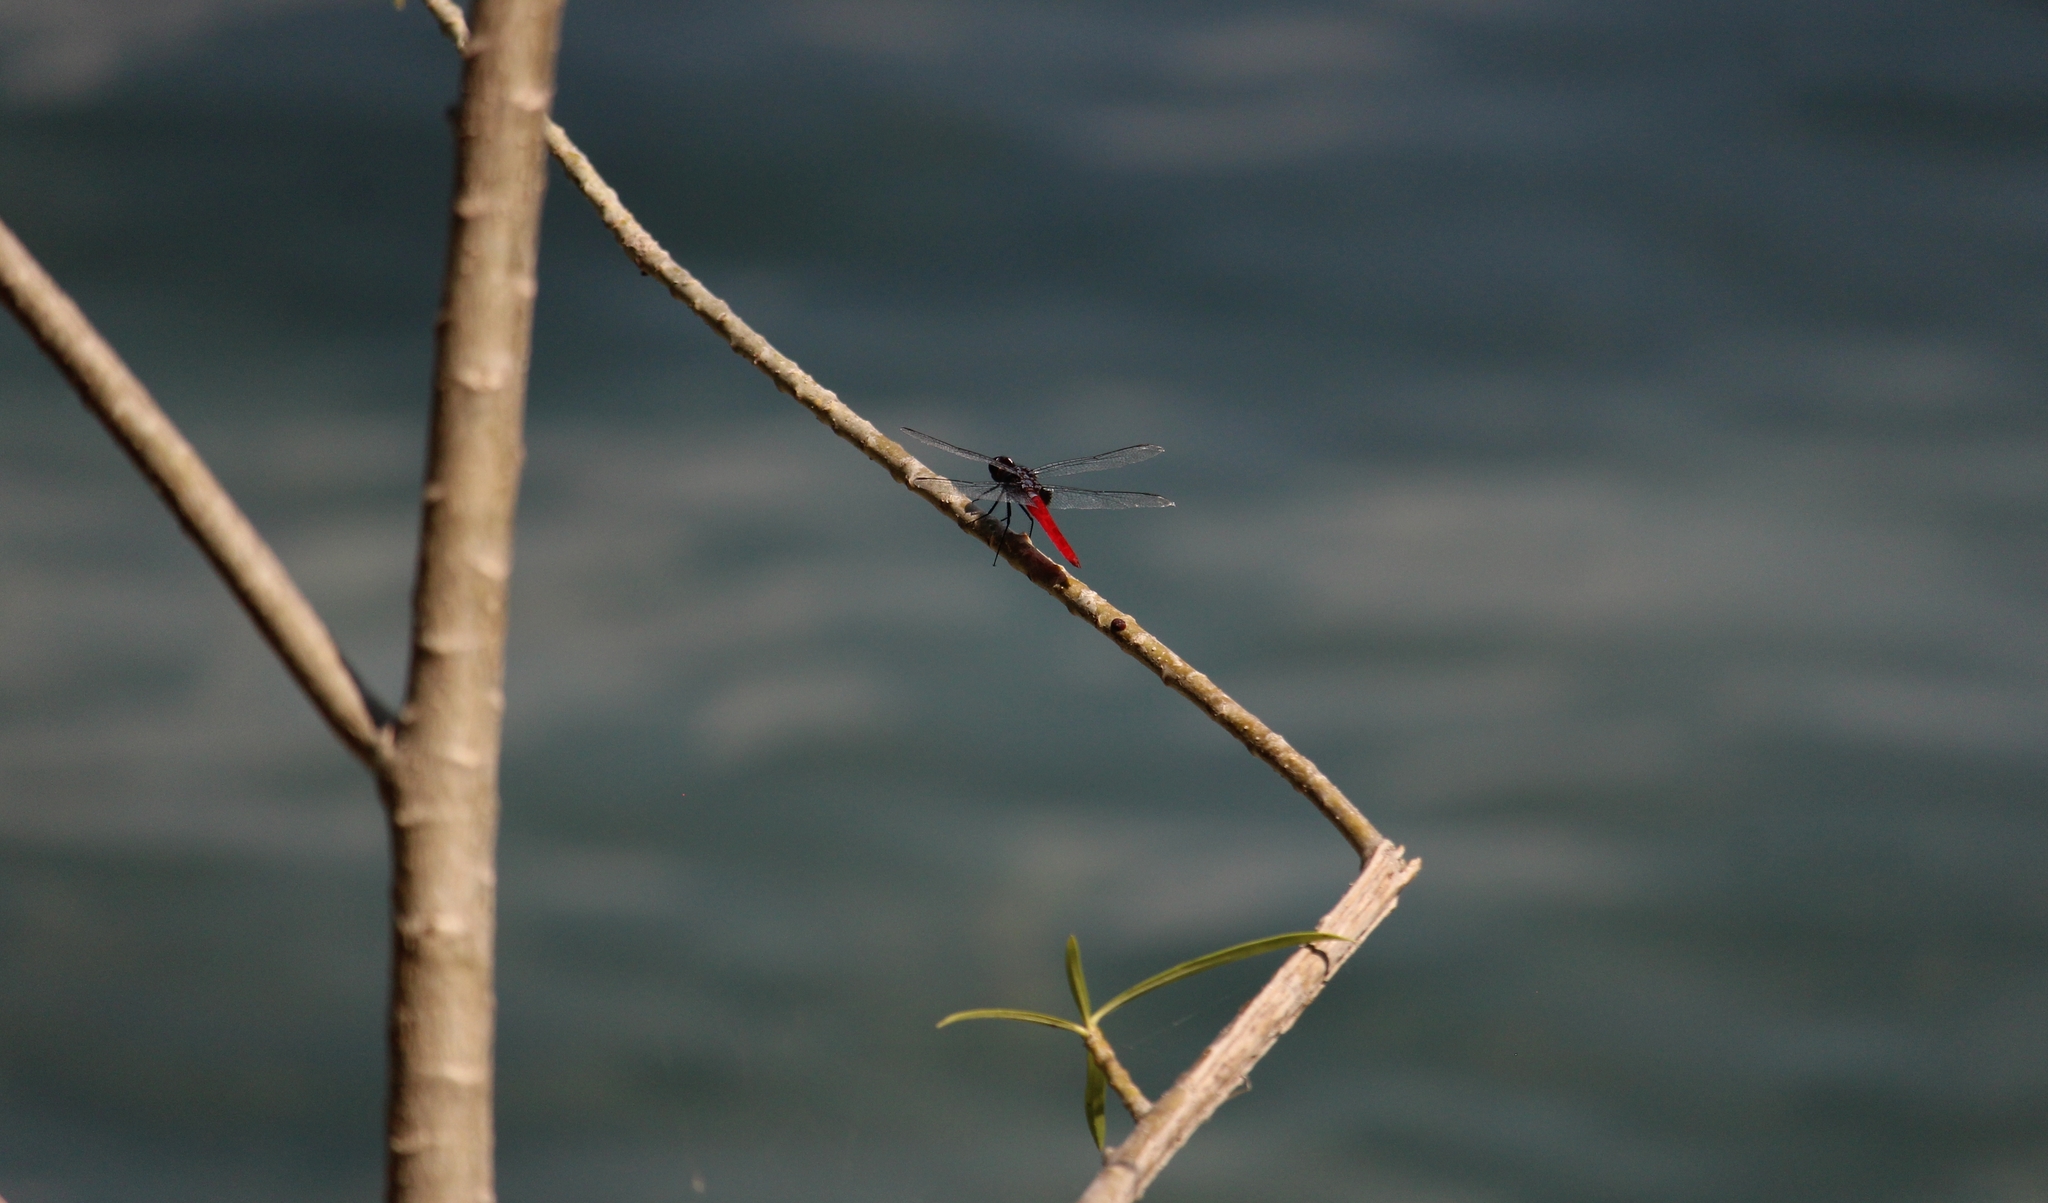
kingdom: Animalia
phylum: Arthropoda
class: Insecta
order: Odonata
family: Libellulidae
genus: Planiplax
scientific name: Planiplax sanguiniventris
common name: Mexican scarlet-tail
